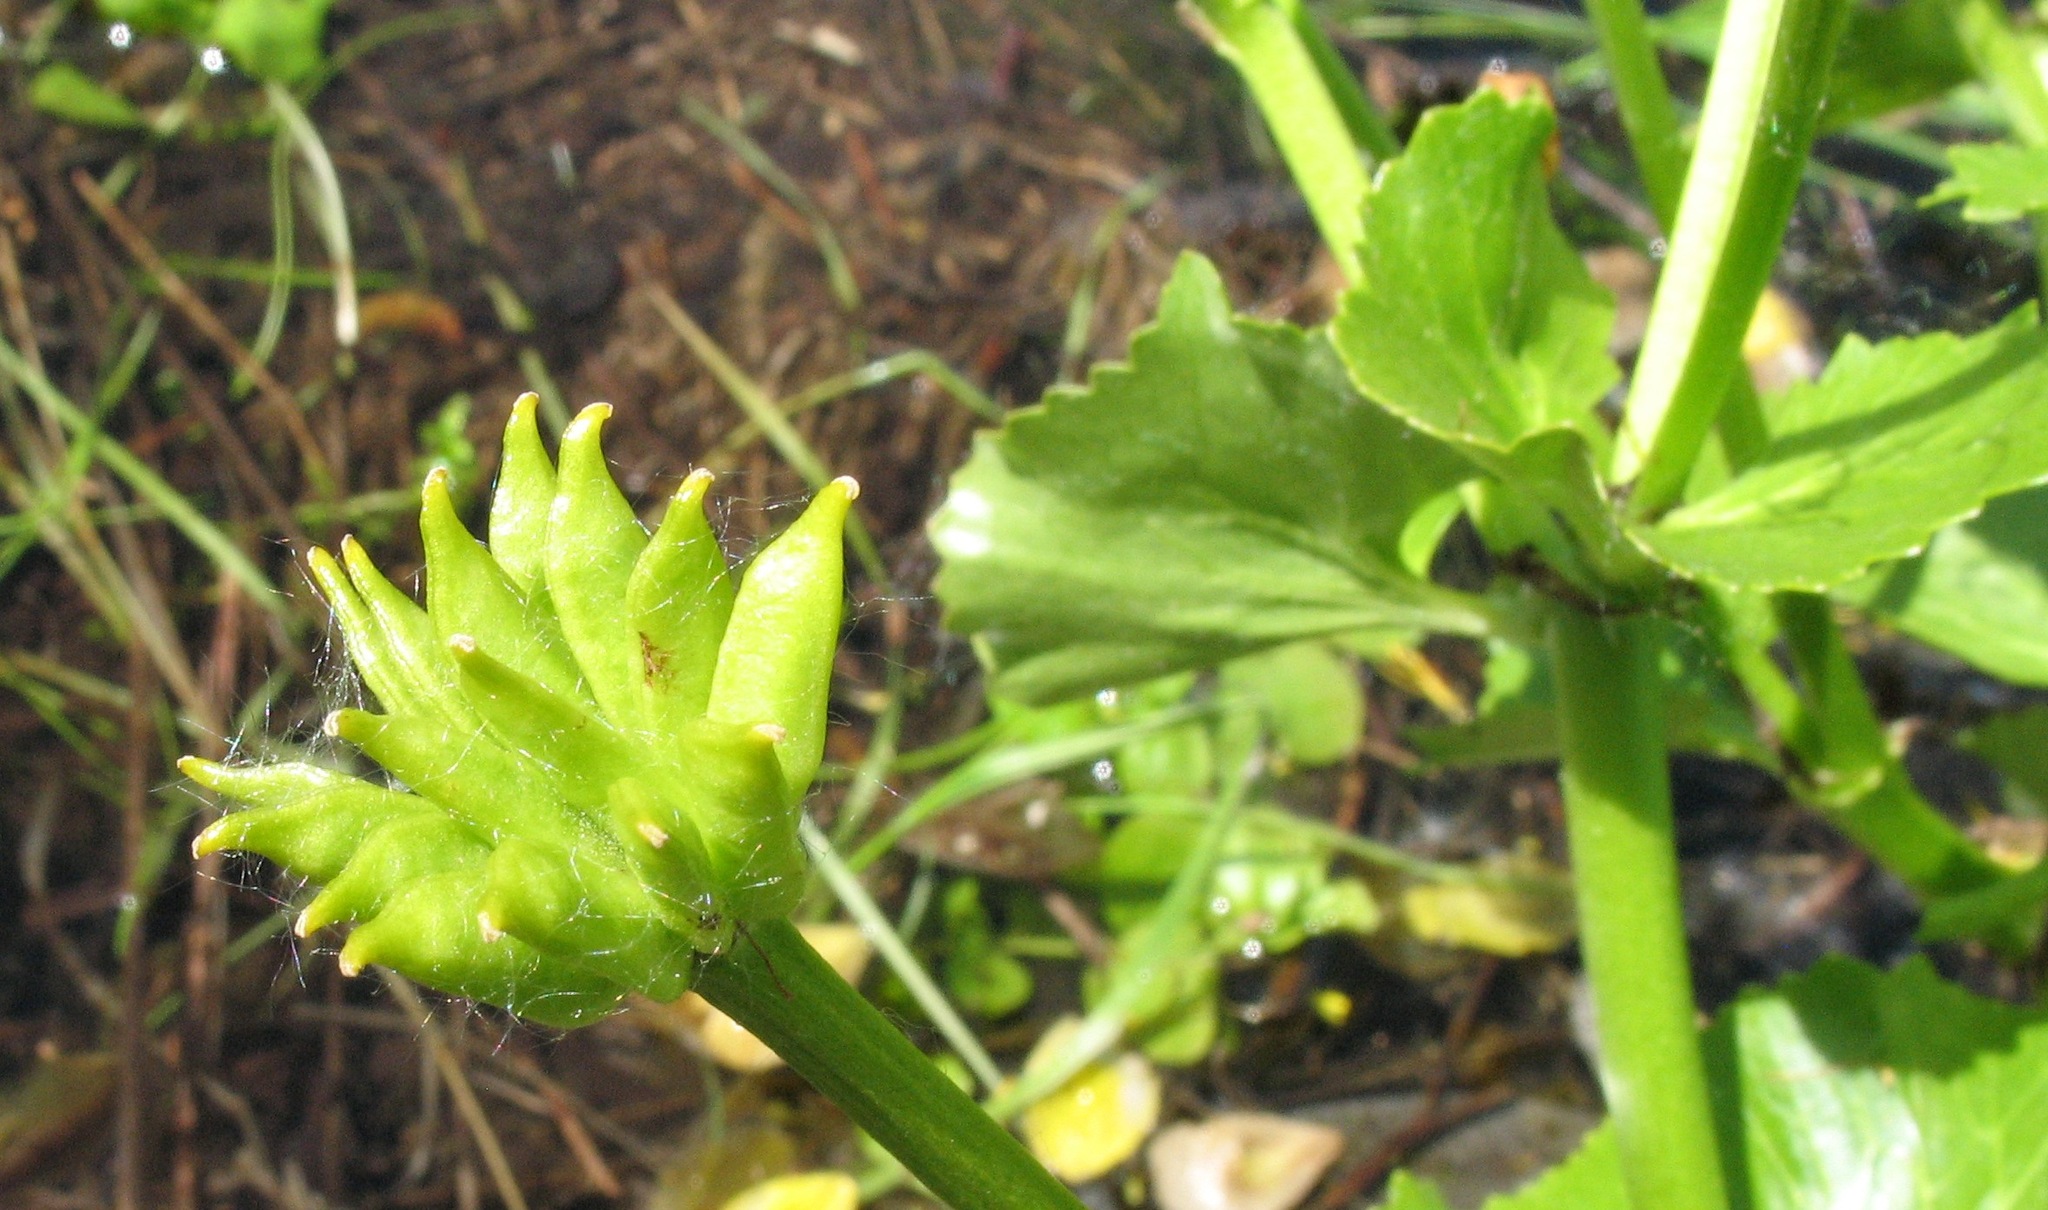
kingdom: Plantae
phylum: Tracheophyta
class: Magnoliopsida
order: Ranunculales
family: Ranunculaceae
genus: Caltha
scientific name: Caltha palustris
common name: Marsh marigold
